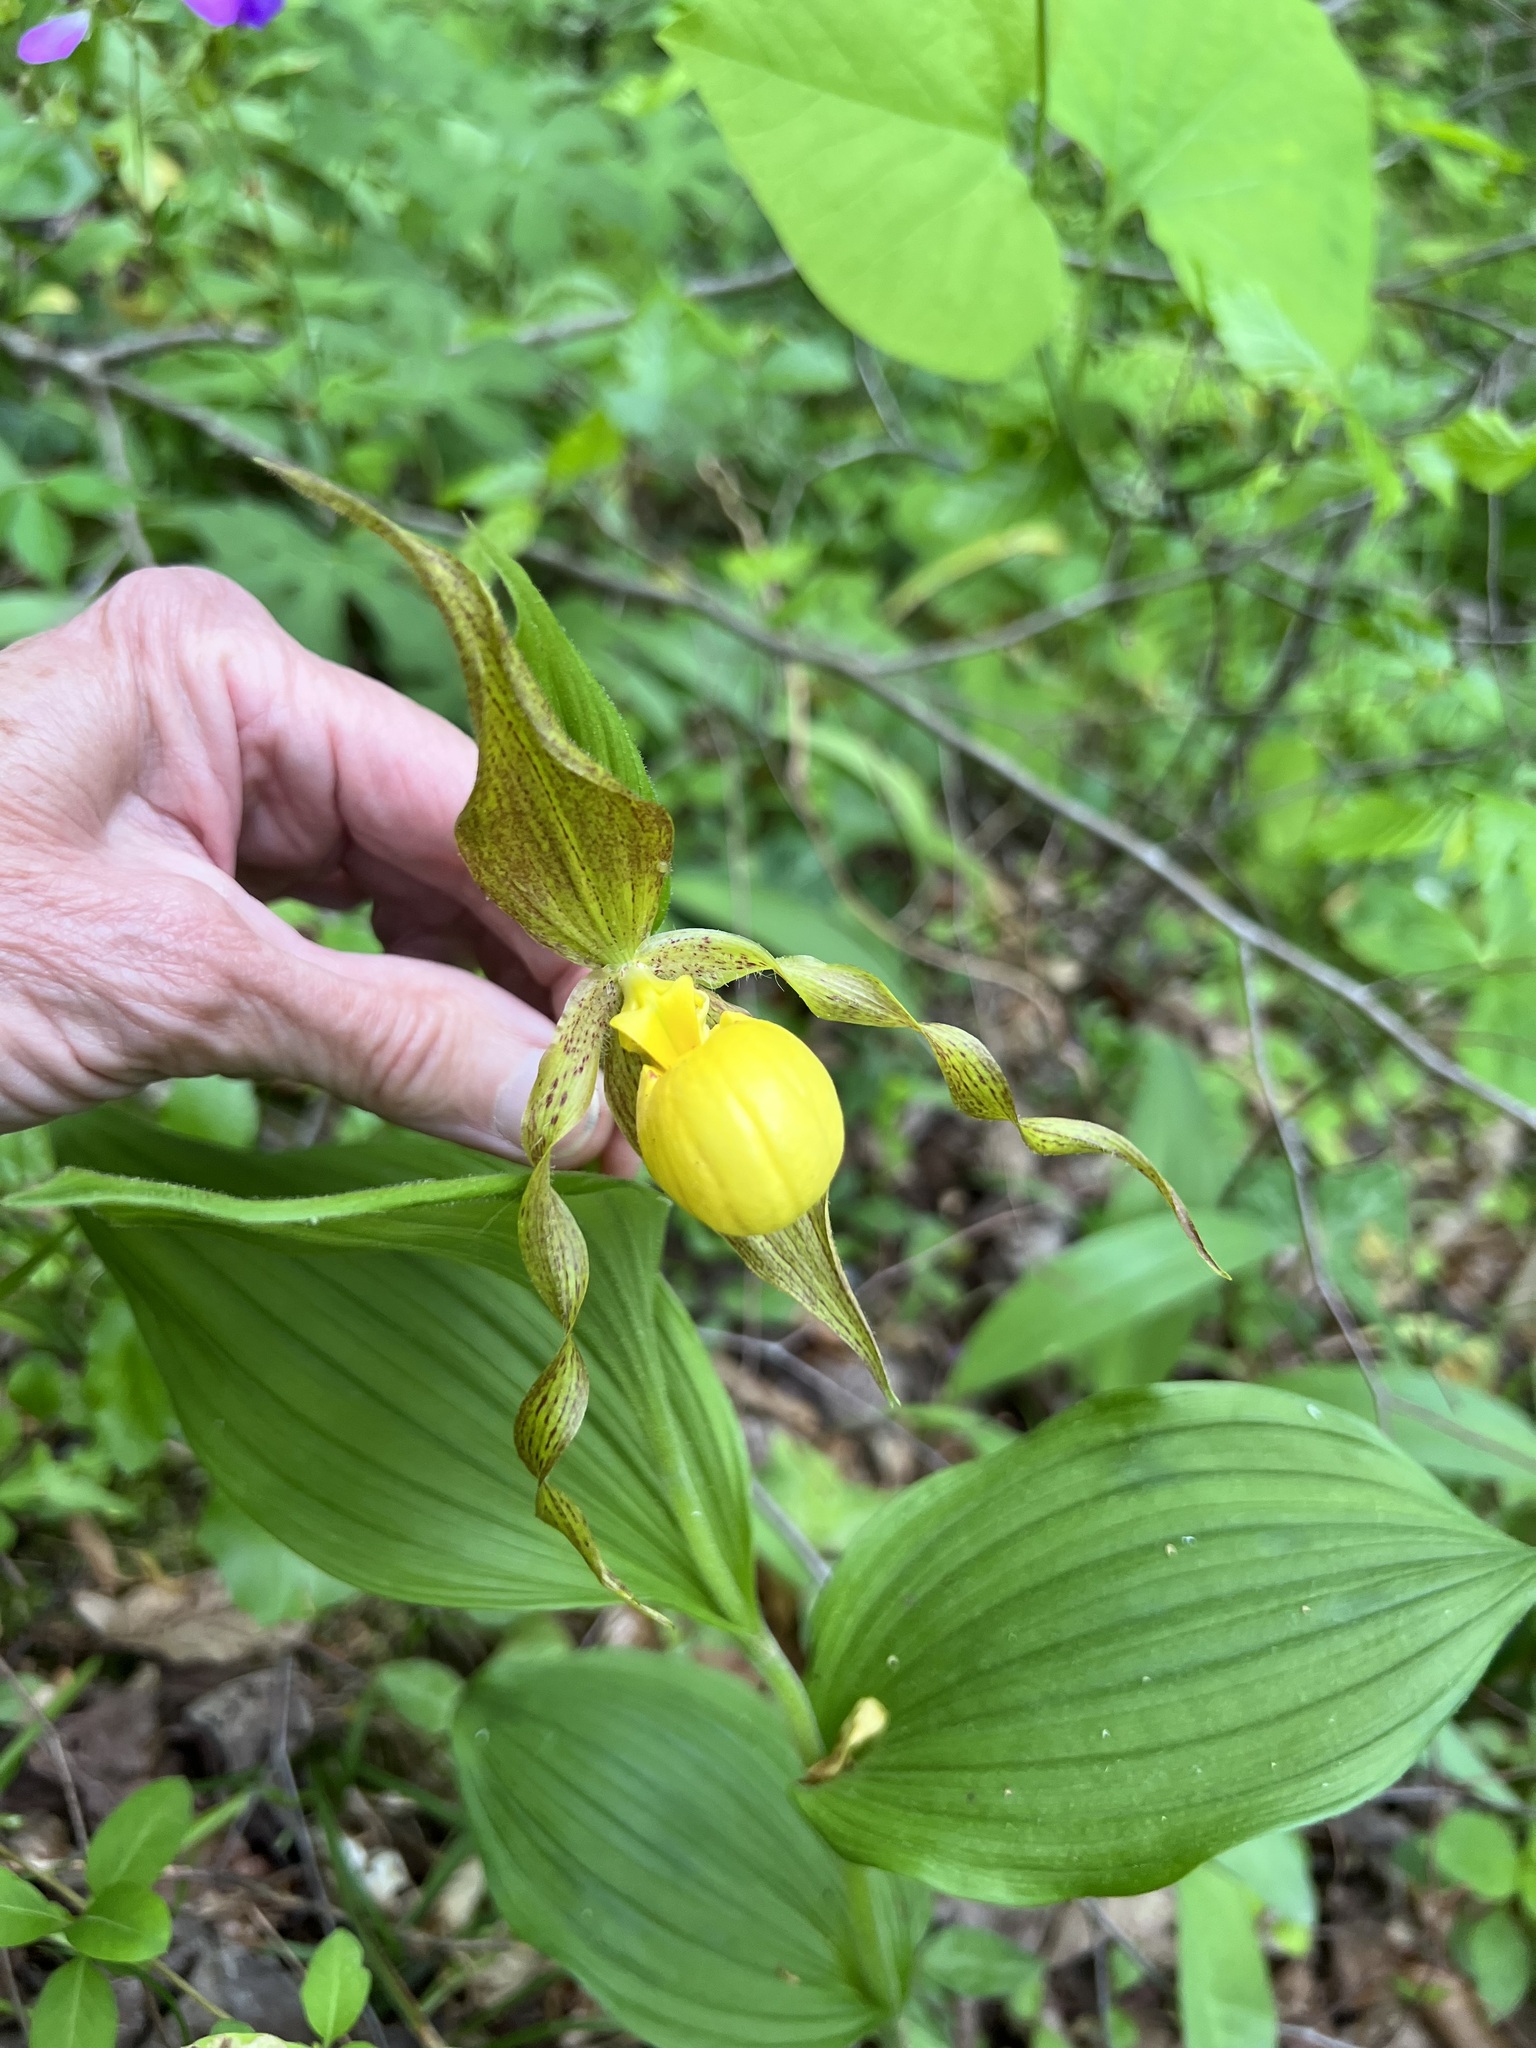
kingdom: Plantae
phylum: Tracheophyta
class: Liliopsida
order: Asparagales
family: Orchidaceae
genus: Cypripedium
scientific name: Cypripedium parviflorum
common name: American yellow lady's-slipper
